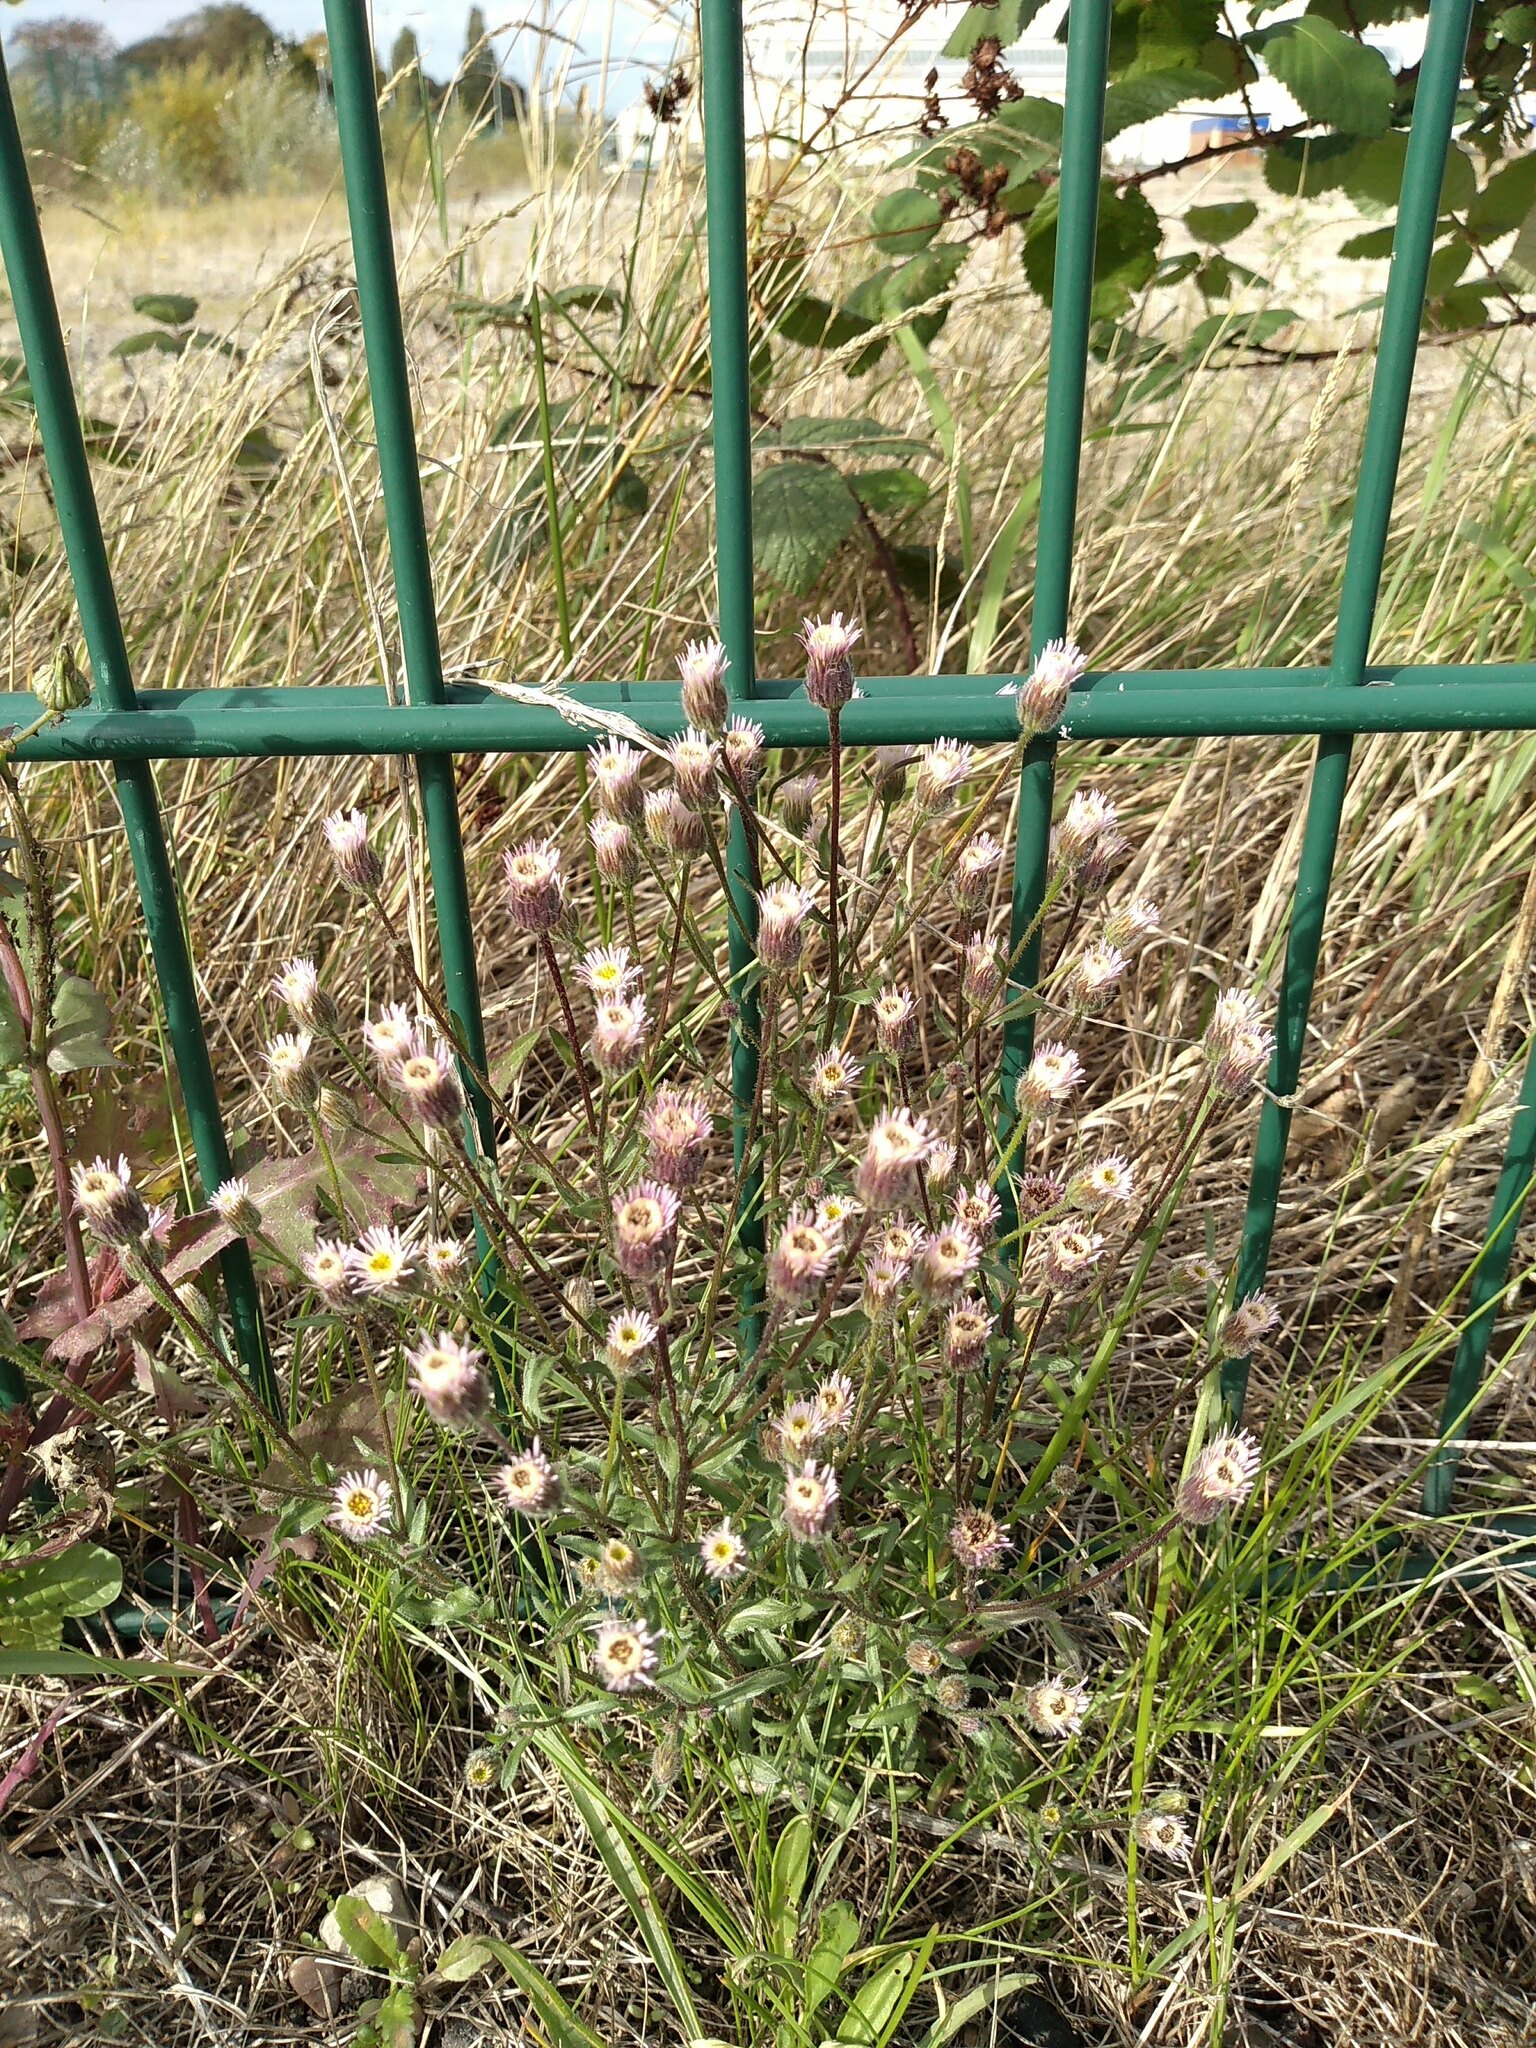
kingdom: Plantae
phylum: Tracheophyta
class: Magnoliopsida
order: Asterales
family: Asteraceae
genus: Erigeron
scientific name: Erigeron acris
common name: Blue fleabane
